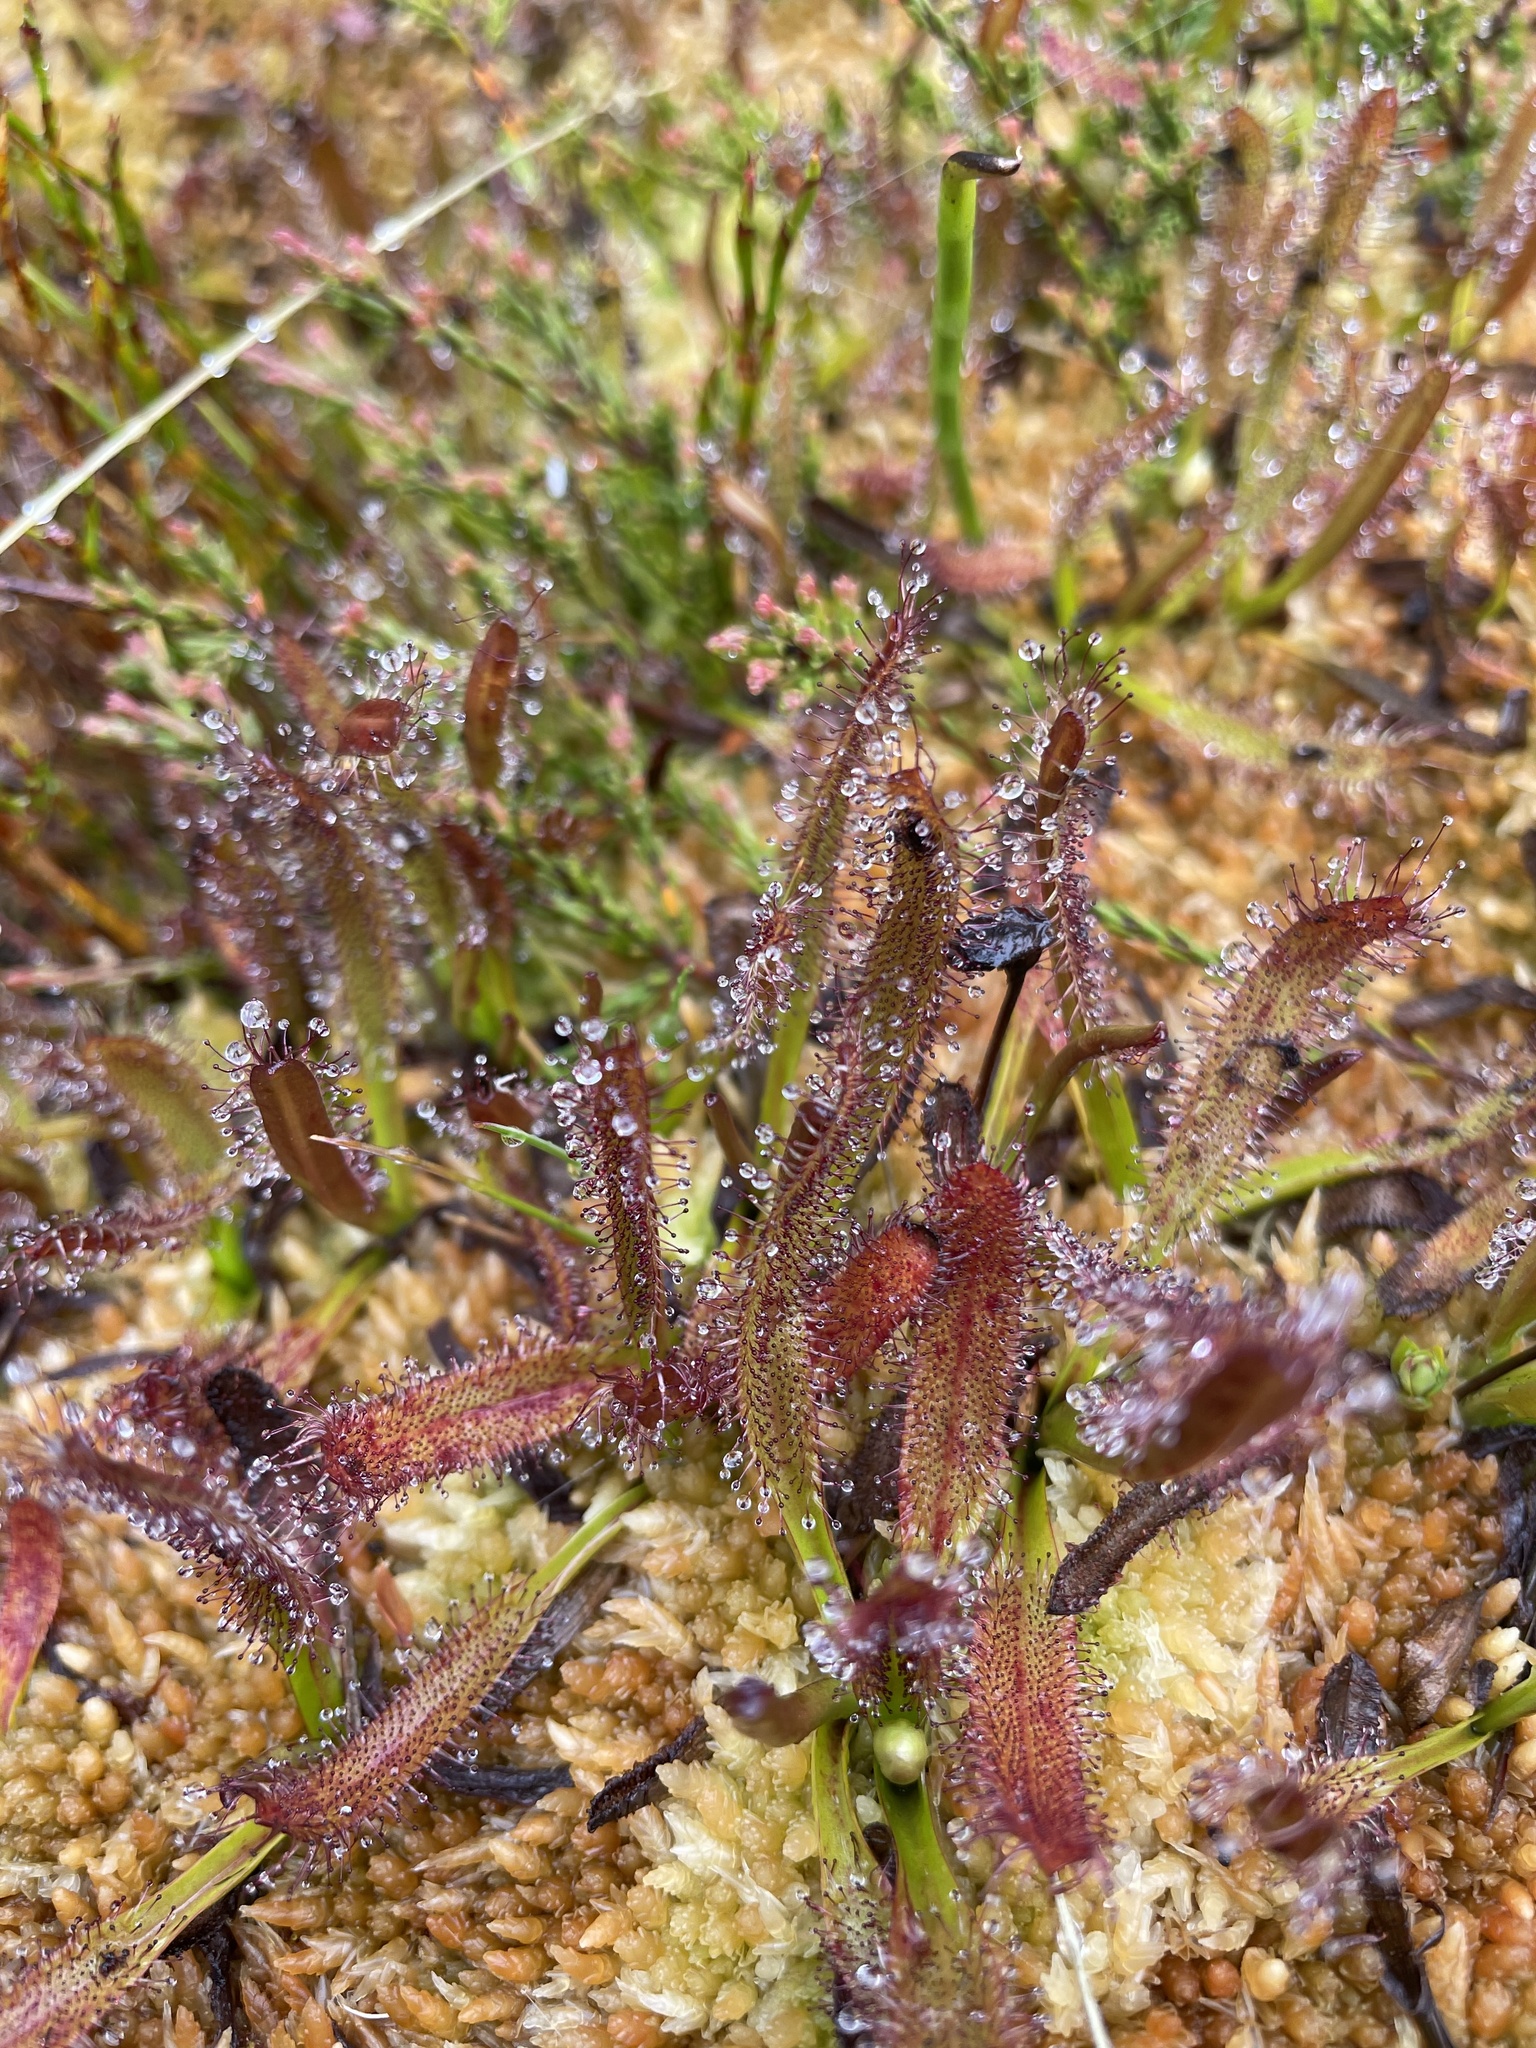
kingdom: Plantae
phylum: Tracheophyta
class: Magnoliopsida
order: Caryophyllales
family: Droseraceae
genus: Drosera
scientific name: Drosera arcturi
